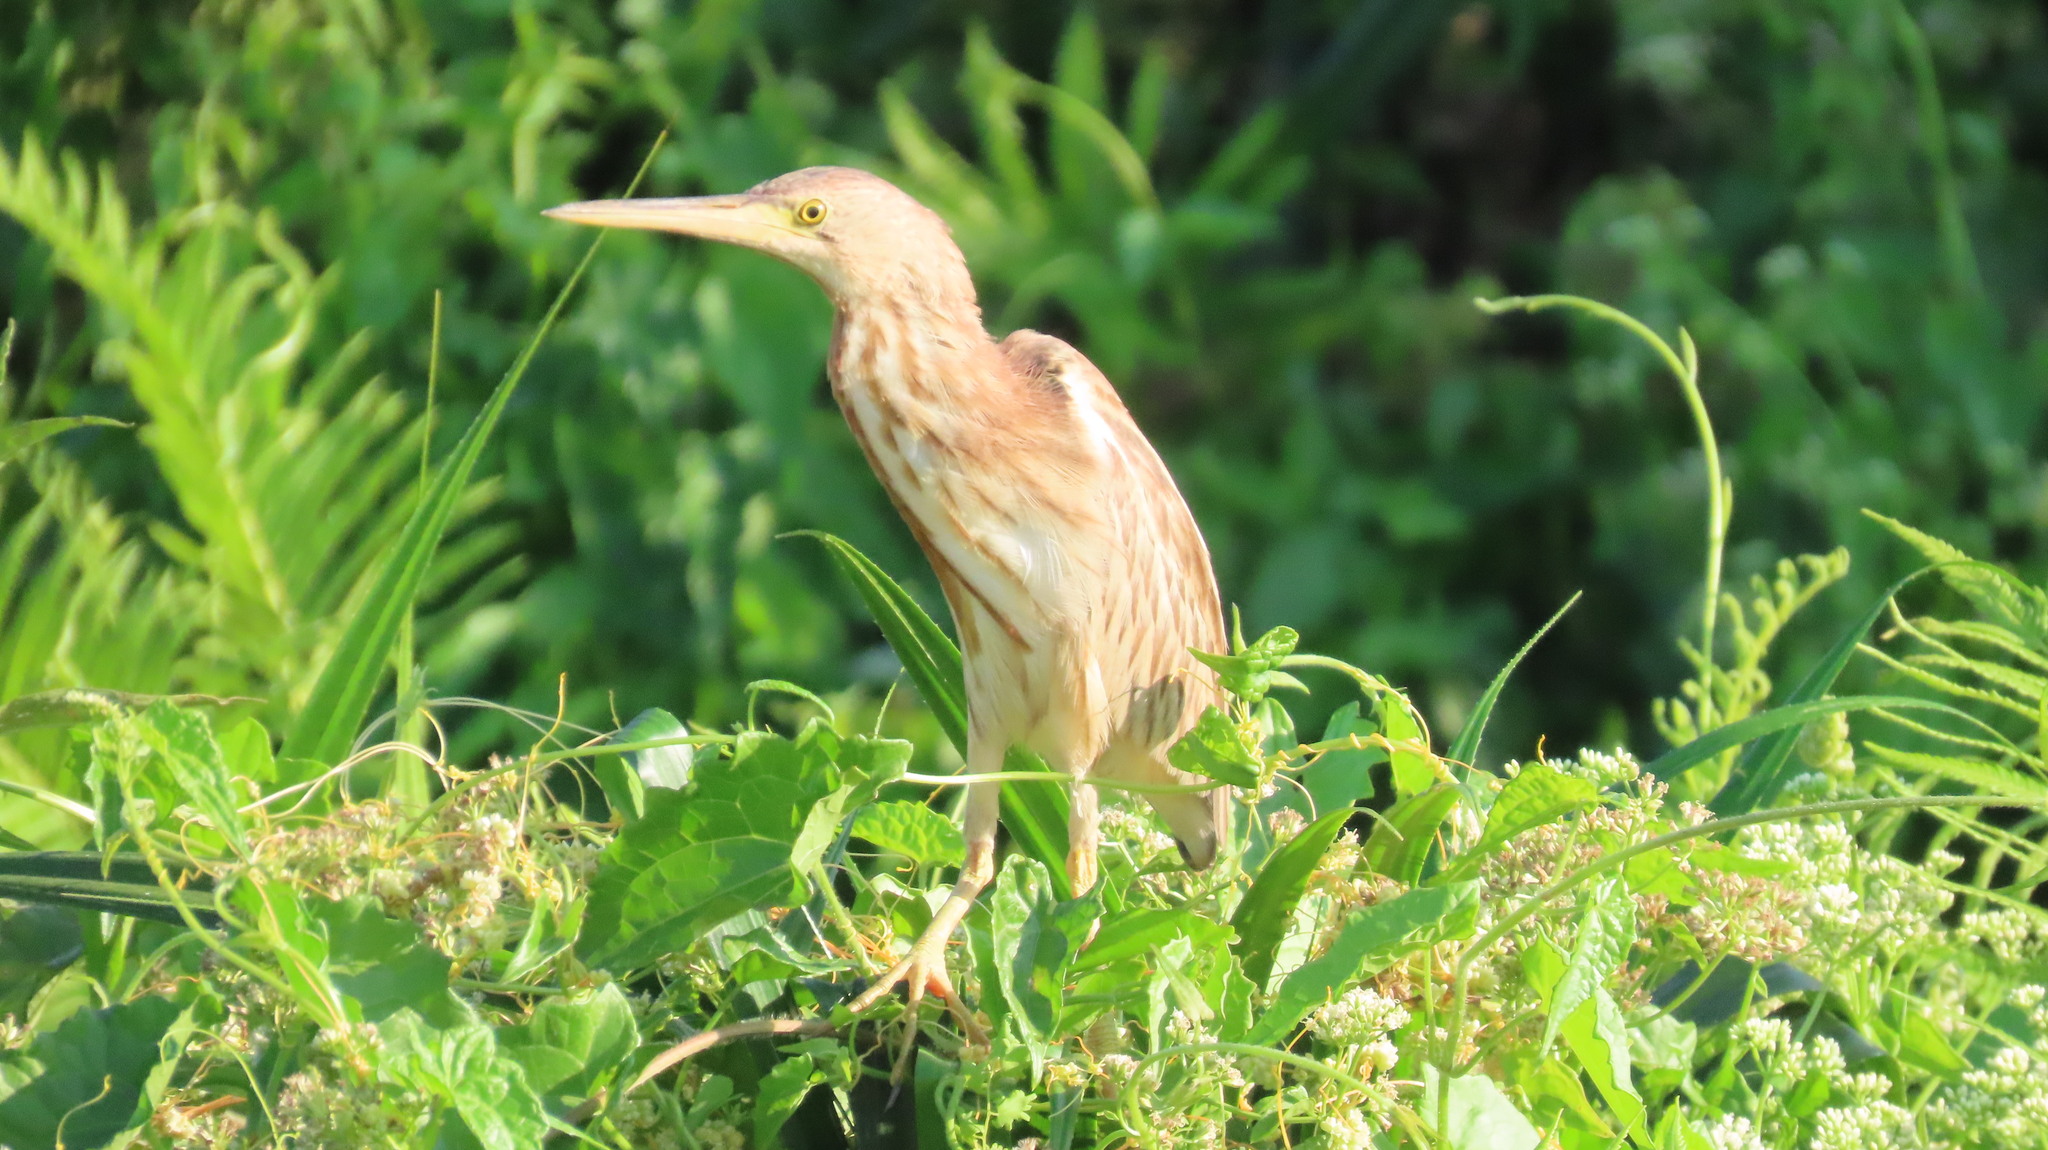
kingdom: Animalia
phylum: Chordata
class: Aves
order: Pelecaniformes
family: Ardeidae
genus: Ixobrychus
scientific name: Ixobrychus sinensis
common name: Yellow bittern
